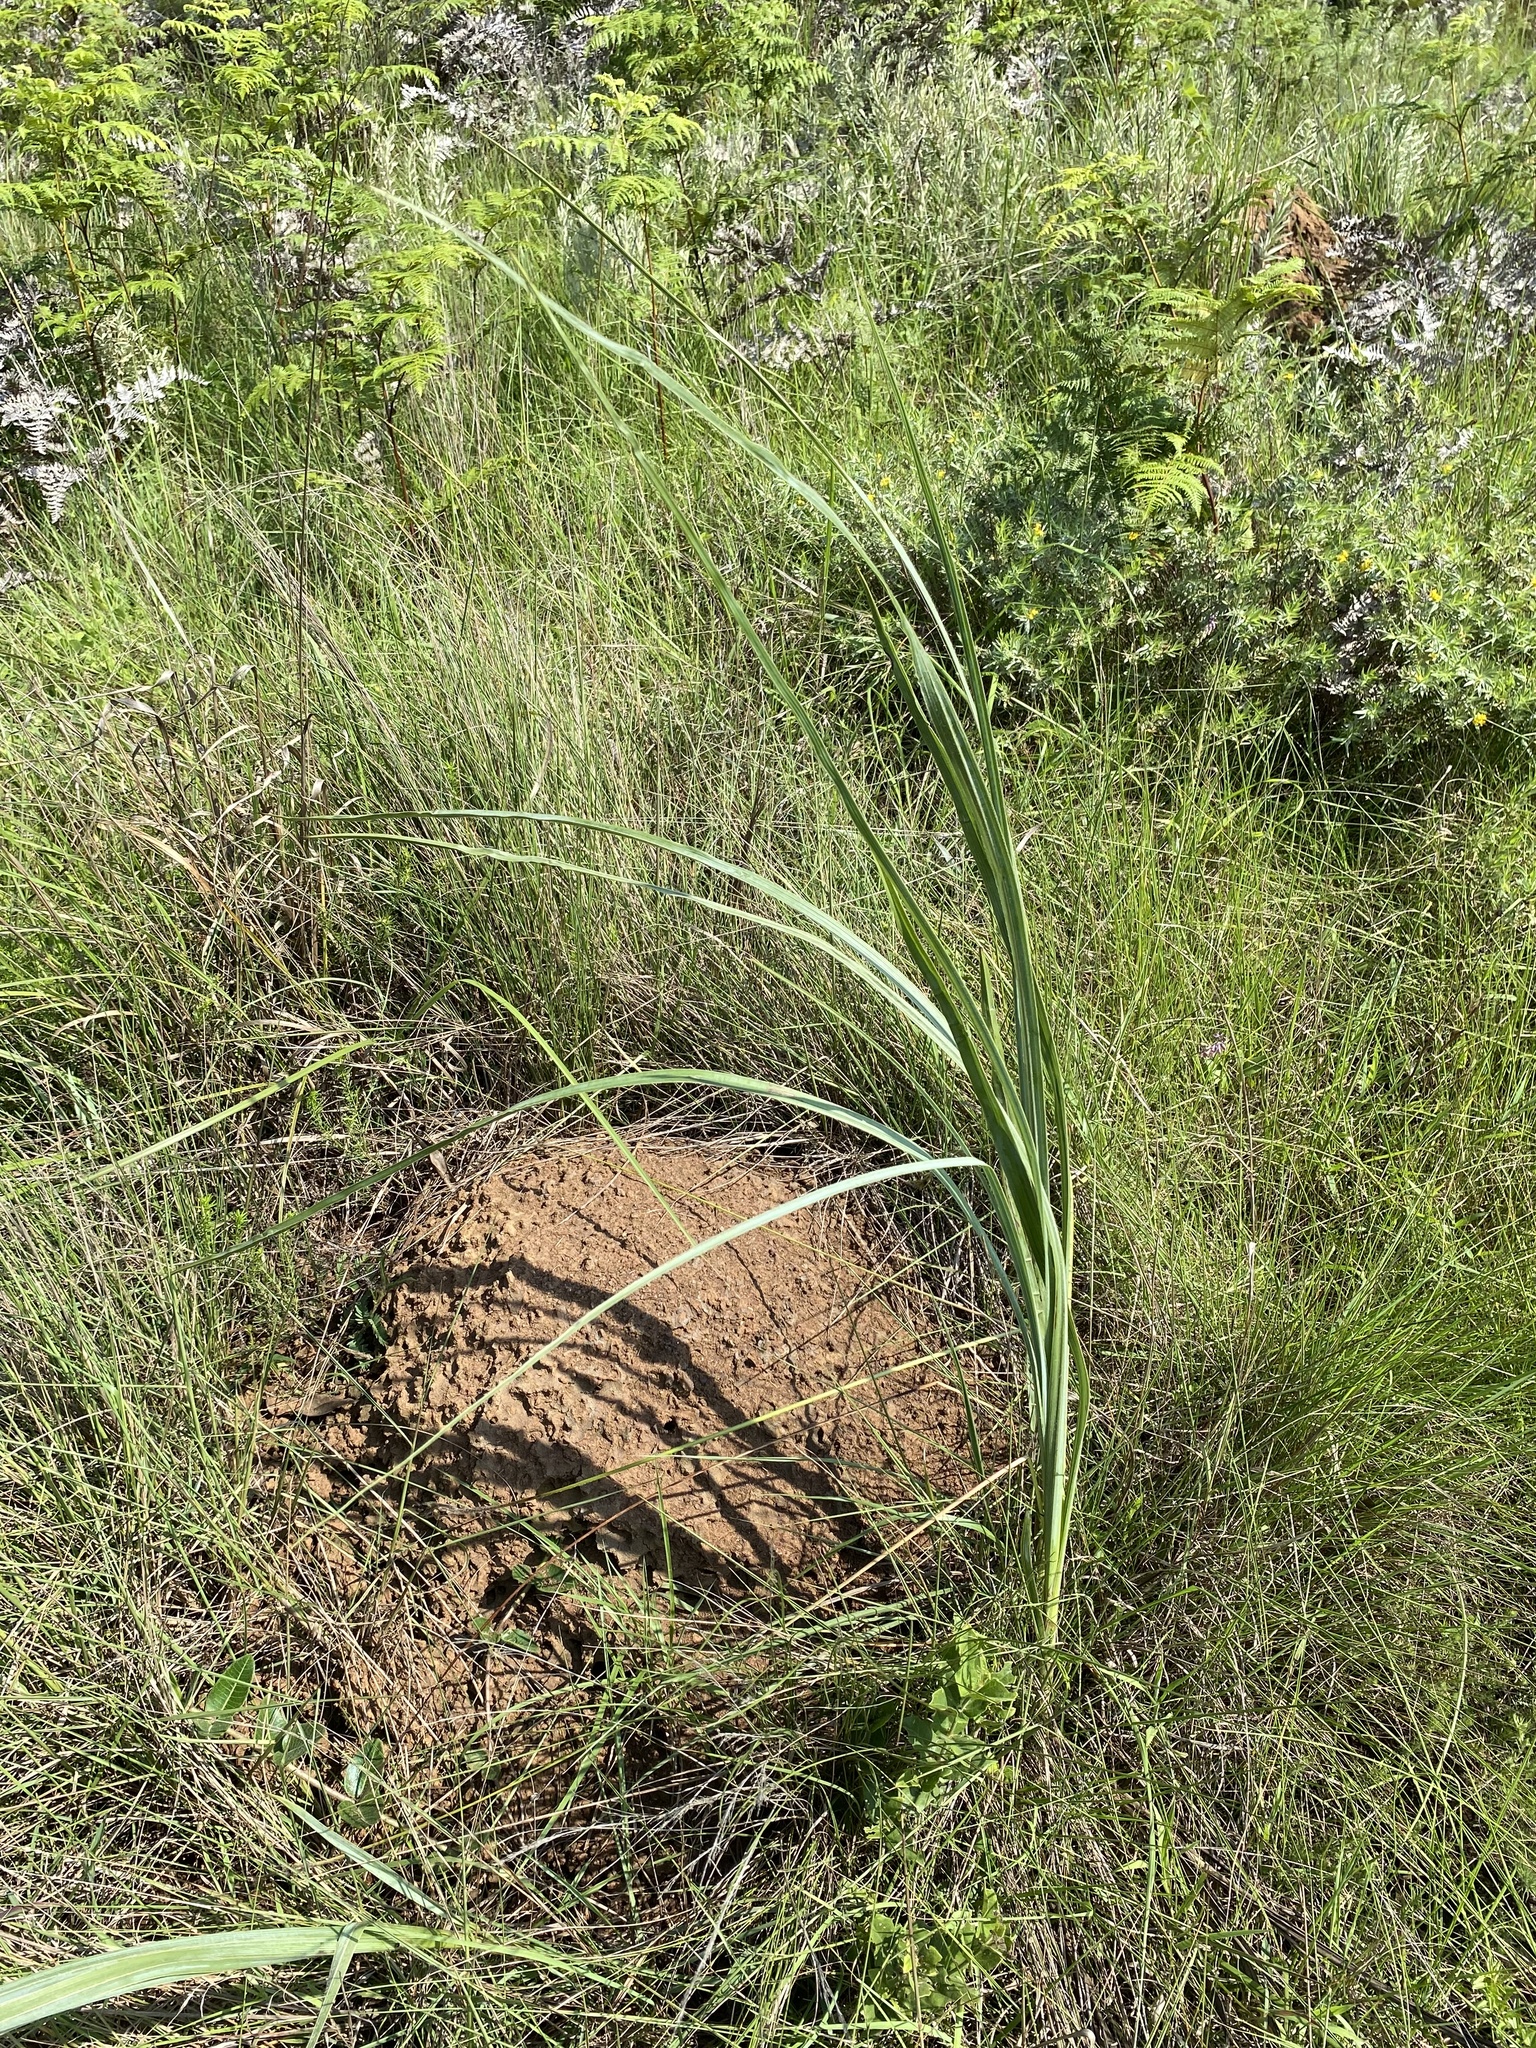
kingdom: Plantae
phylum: Tracheophyta
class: Liliopsida
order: Asparagales
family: Hypoxidaceae
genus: Hypoxis
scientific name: Hypoxis rigidula
